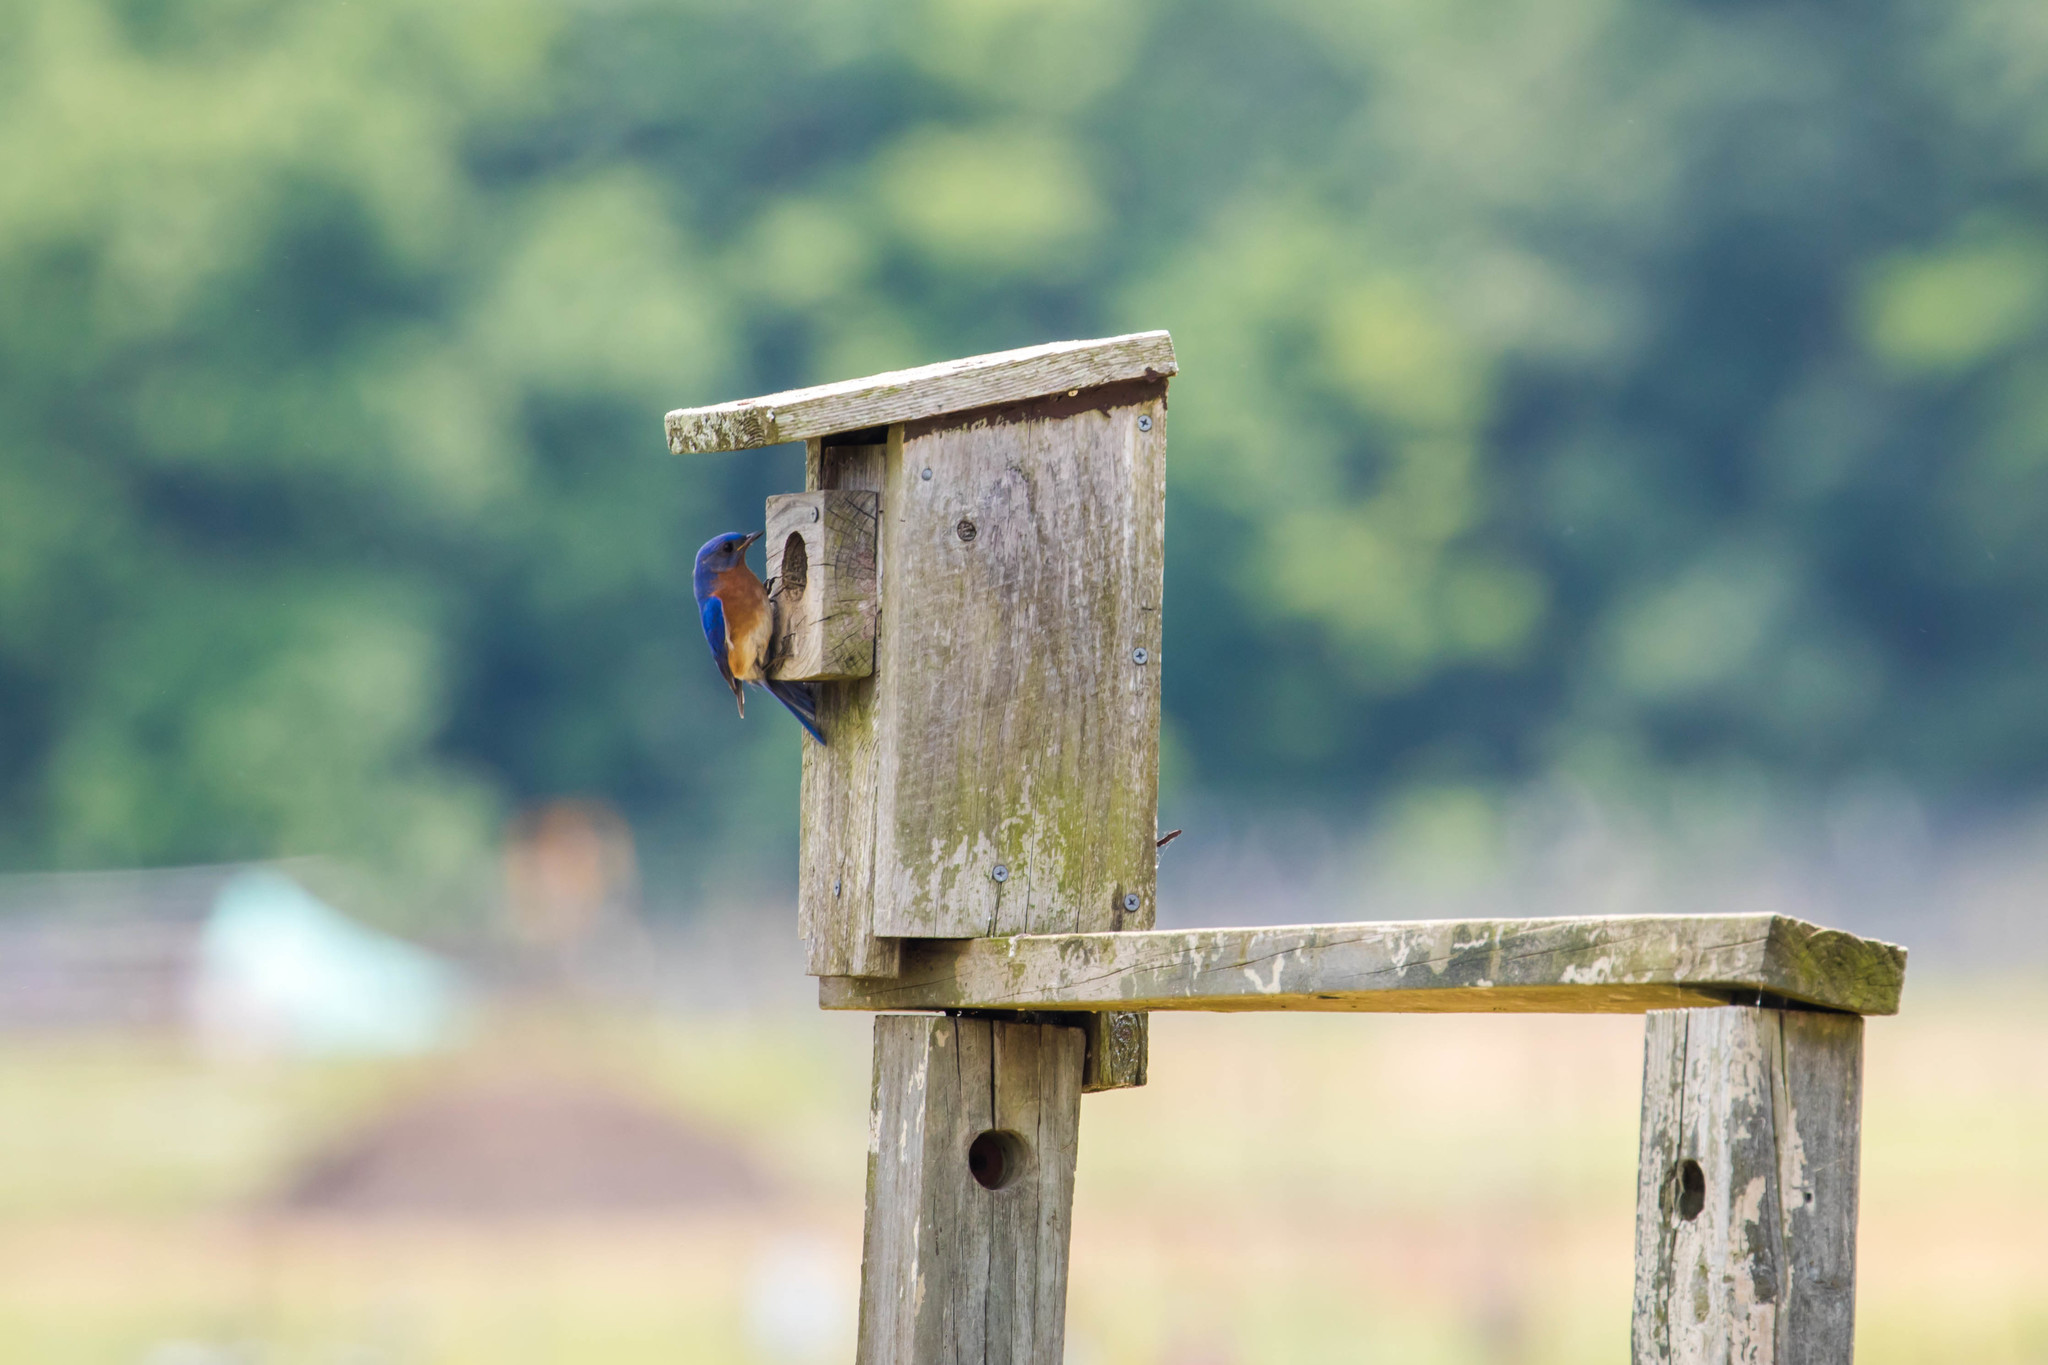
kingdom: Animalia
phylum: Chordata
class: Aves
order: Passeriformes
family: Turdidae
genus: Sialia
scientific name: Sialia sialis
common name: Eastern bluebird
